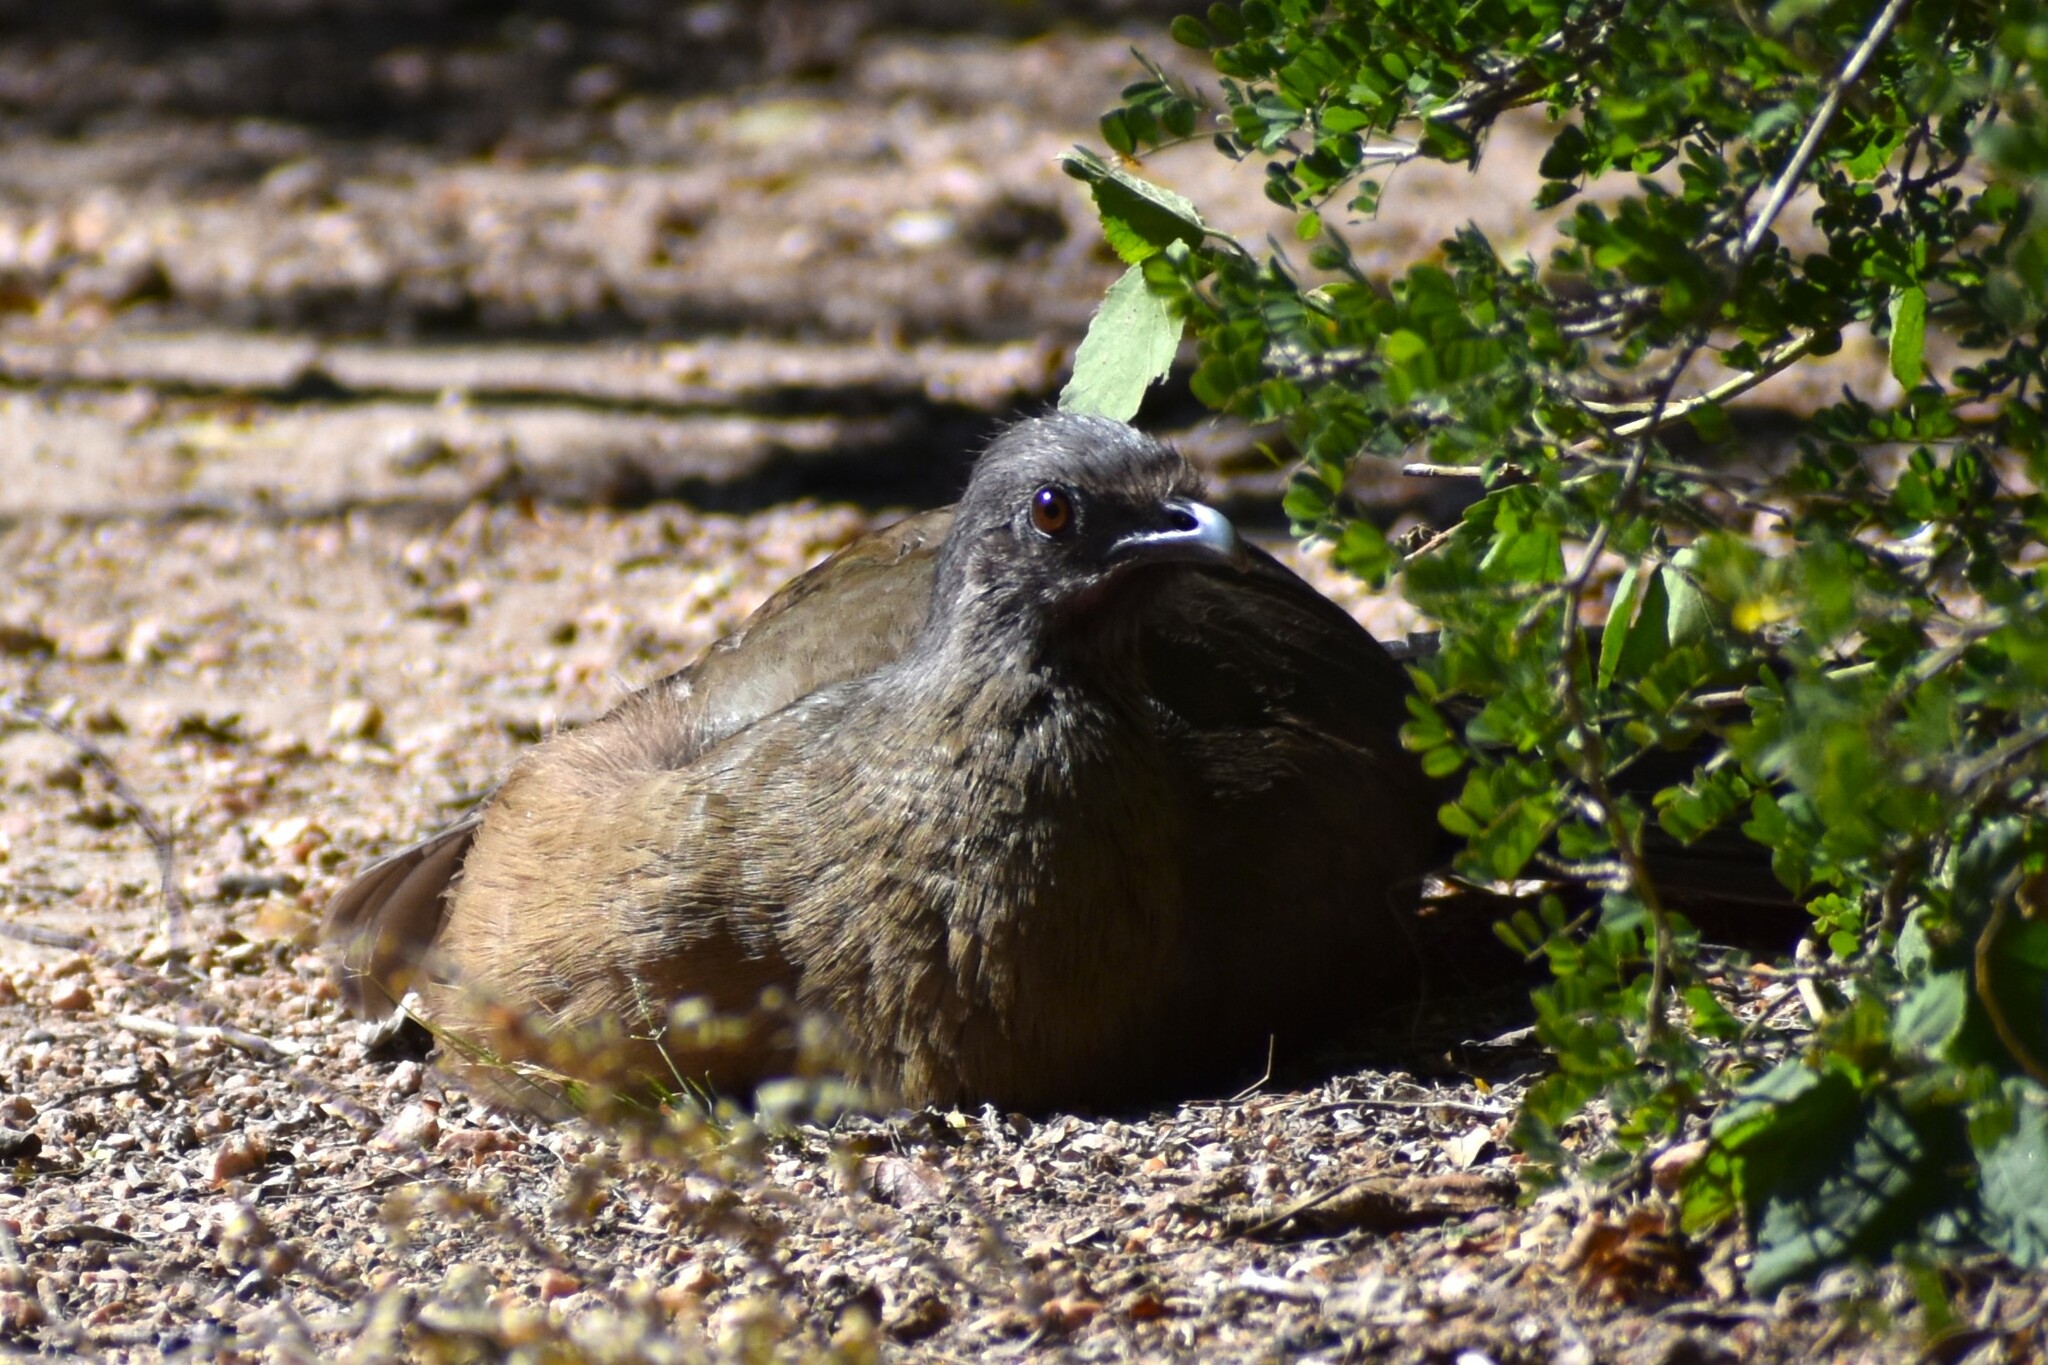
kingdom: Animalia
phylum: Chordata
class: Aves
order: Galliformes
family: Cracidae
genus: Ortalis
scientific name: Ortalis vetula
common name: Plain chachalaca
